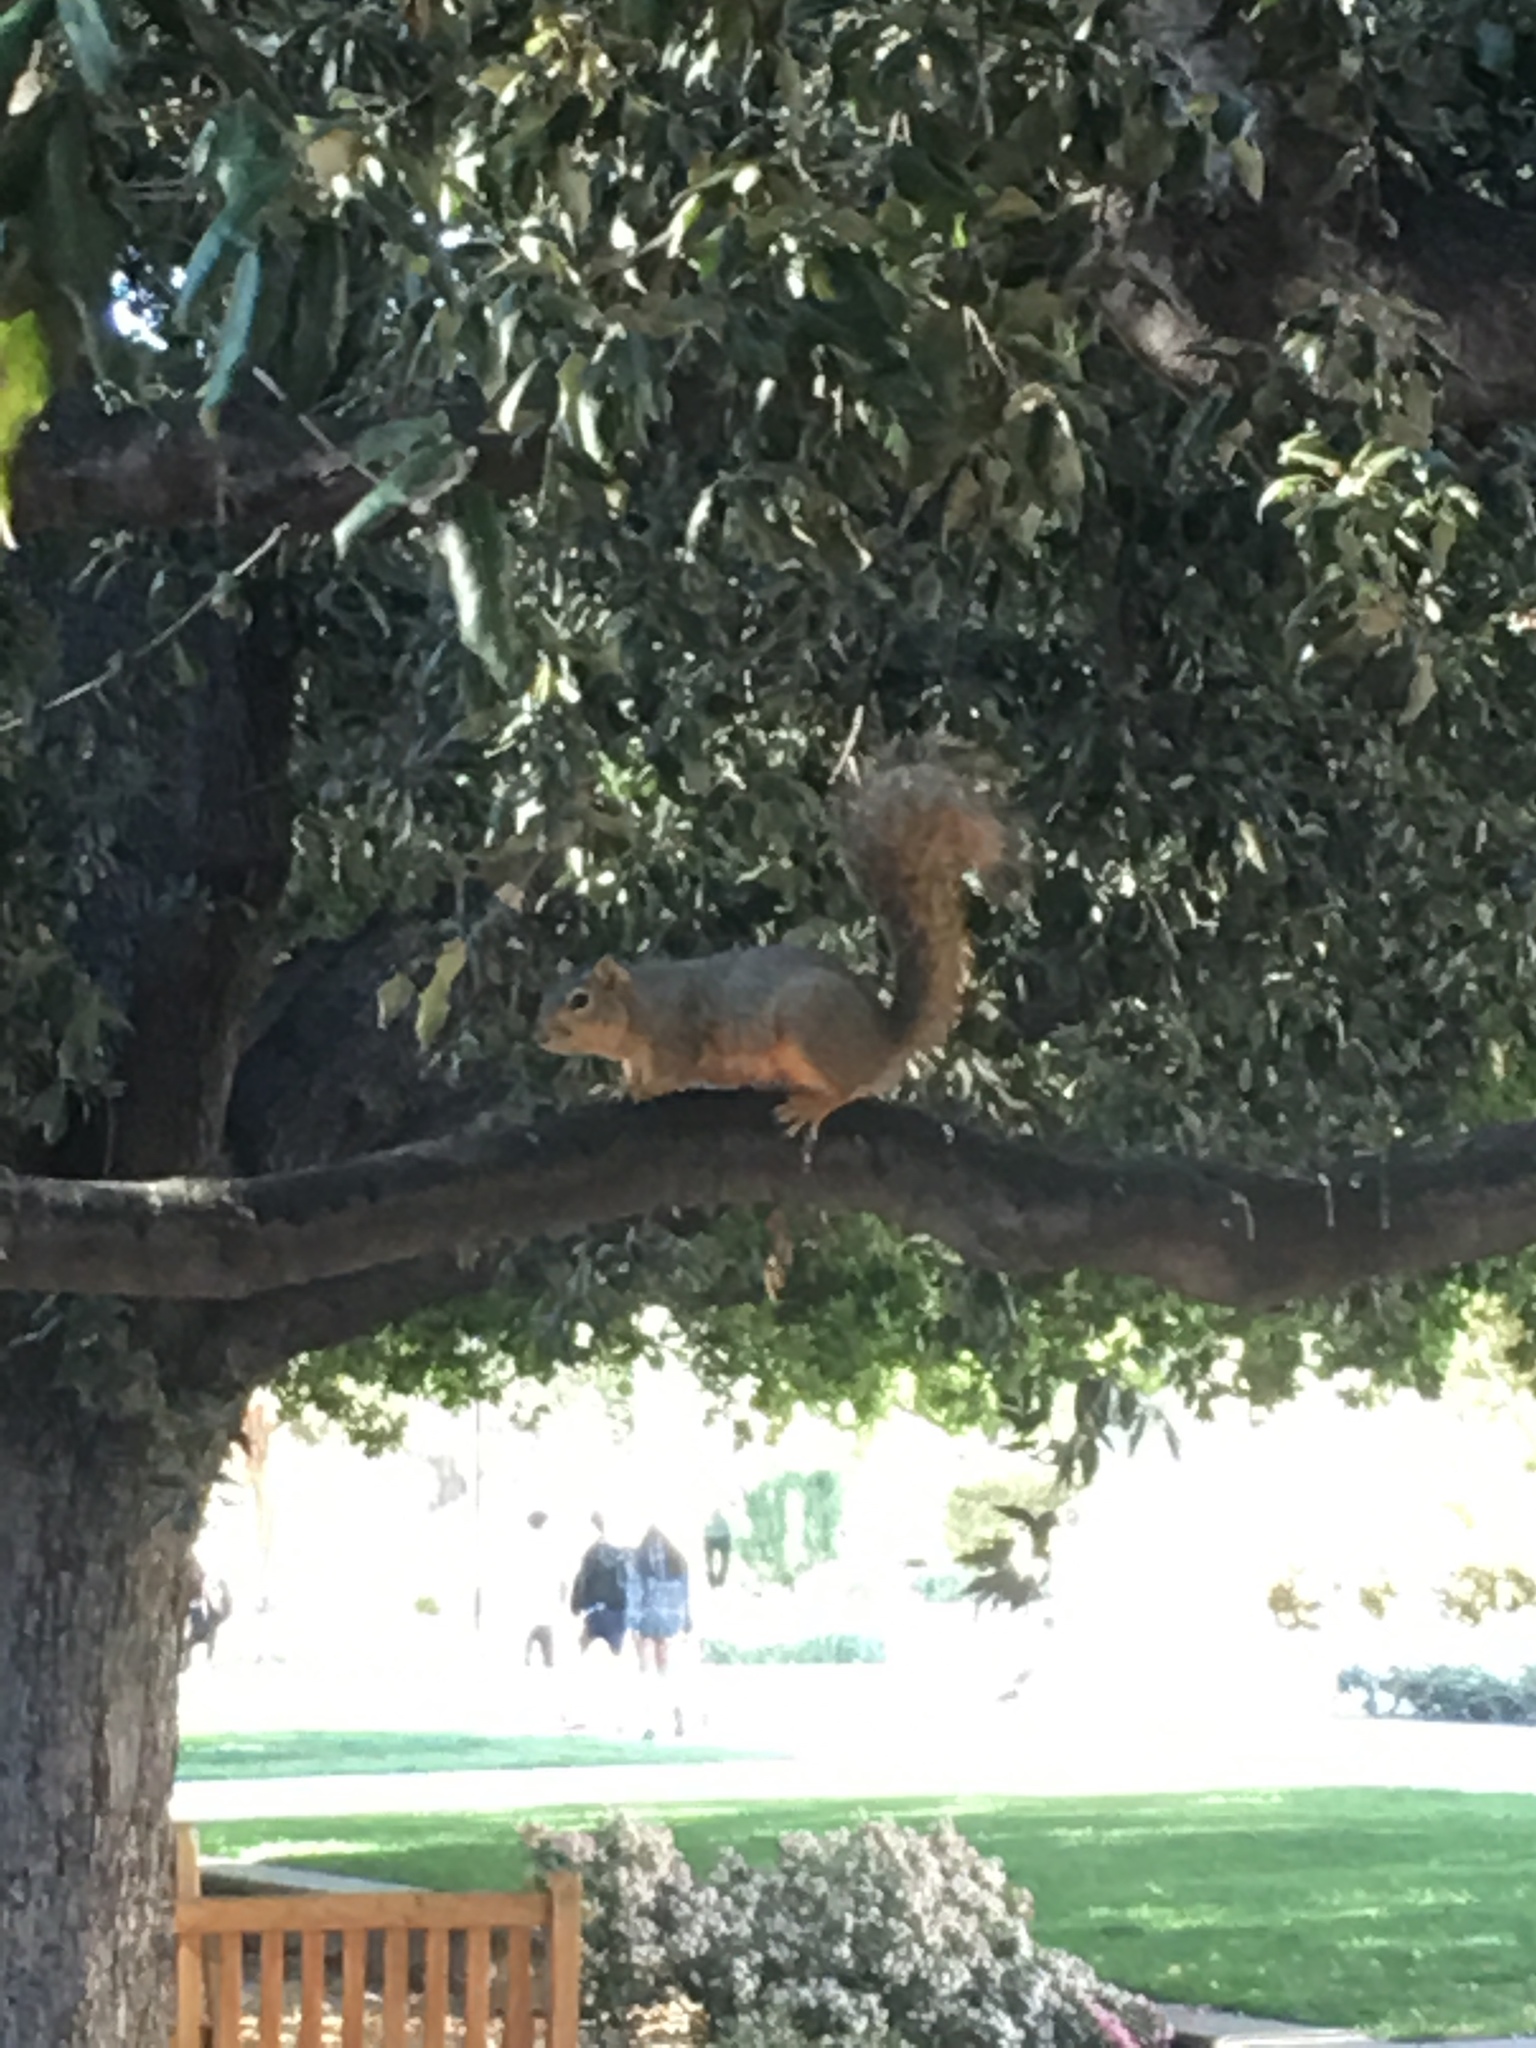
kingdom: Animalia
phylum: Chordata
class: Mammalia
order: Rodentia
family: Sciuridae
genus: Sciurus
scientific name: Sciurus niger
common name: Fox squirrel
